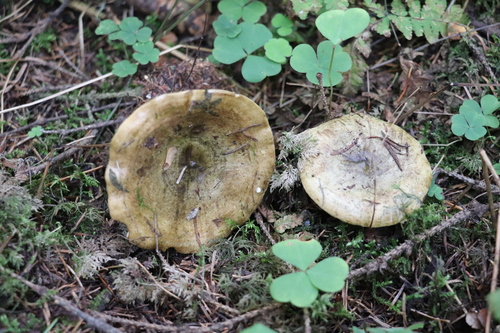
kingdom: Fungi
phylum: Basidiomycota
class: Agaricomycetes
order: Russulales
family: Russulaceae
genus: Lactarius
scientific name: Lactarius turpis
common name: Ugly milk-cap
